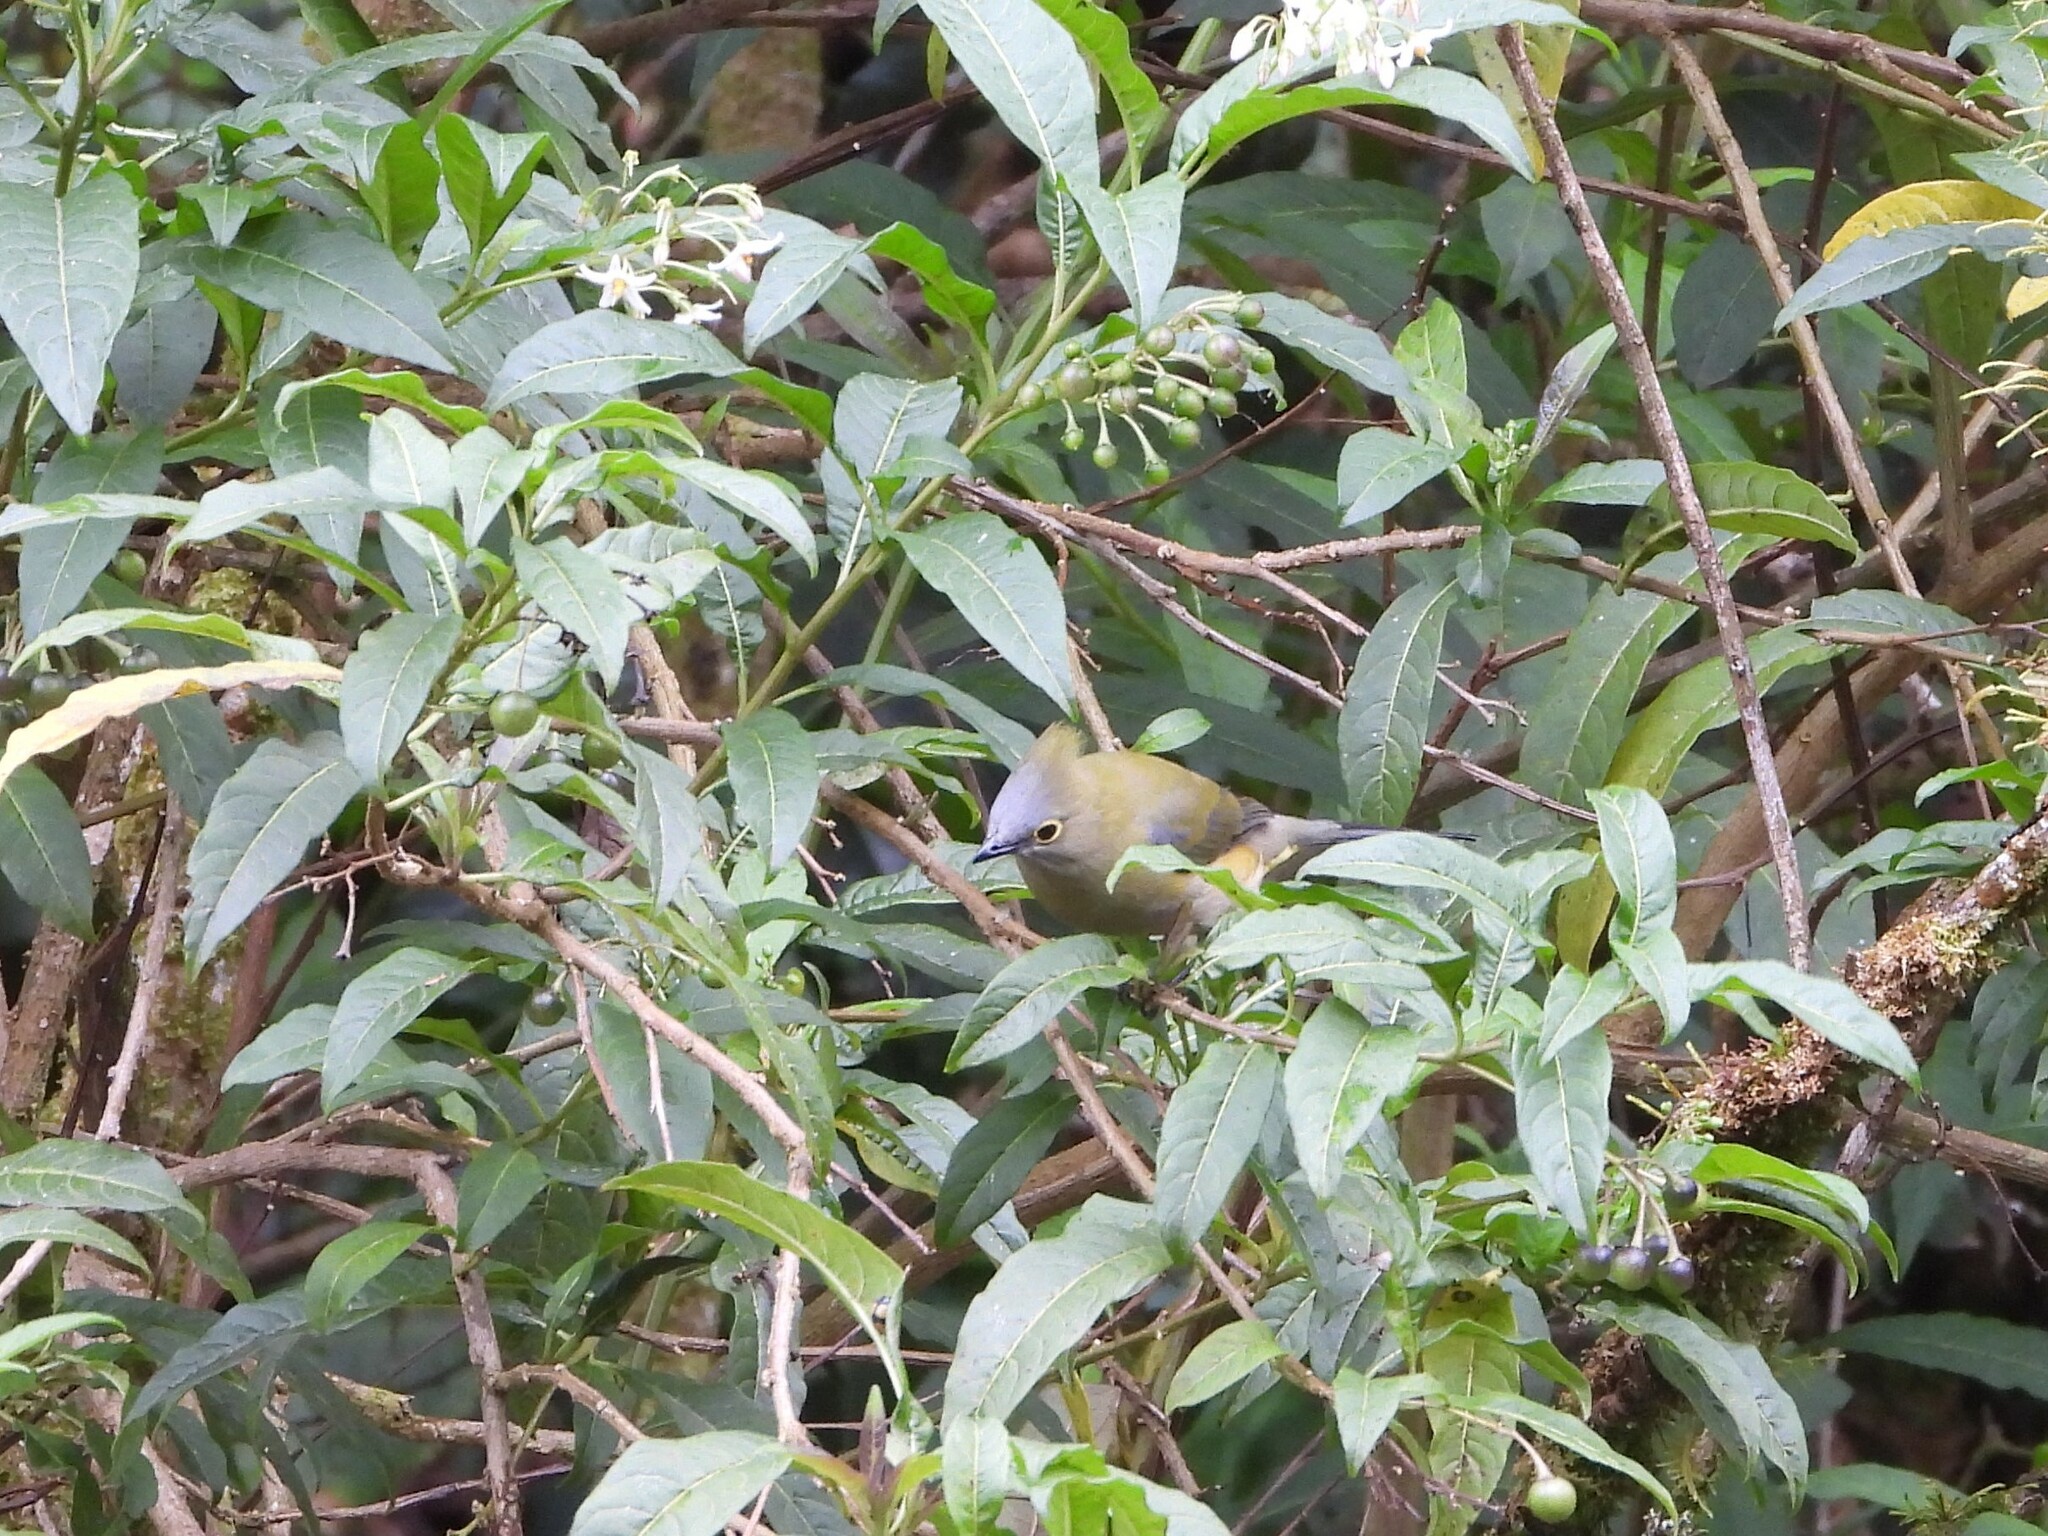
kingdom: Animalia
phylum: Chordata
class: Aves
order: Passeriformes
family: Ptilogonatidae
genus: Ptilogonys
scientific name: Ptilogonys caudatus
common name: Long-tailed silky-flycatcher
